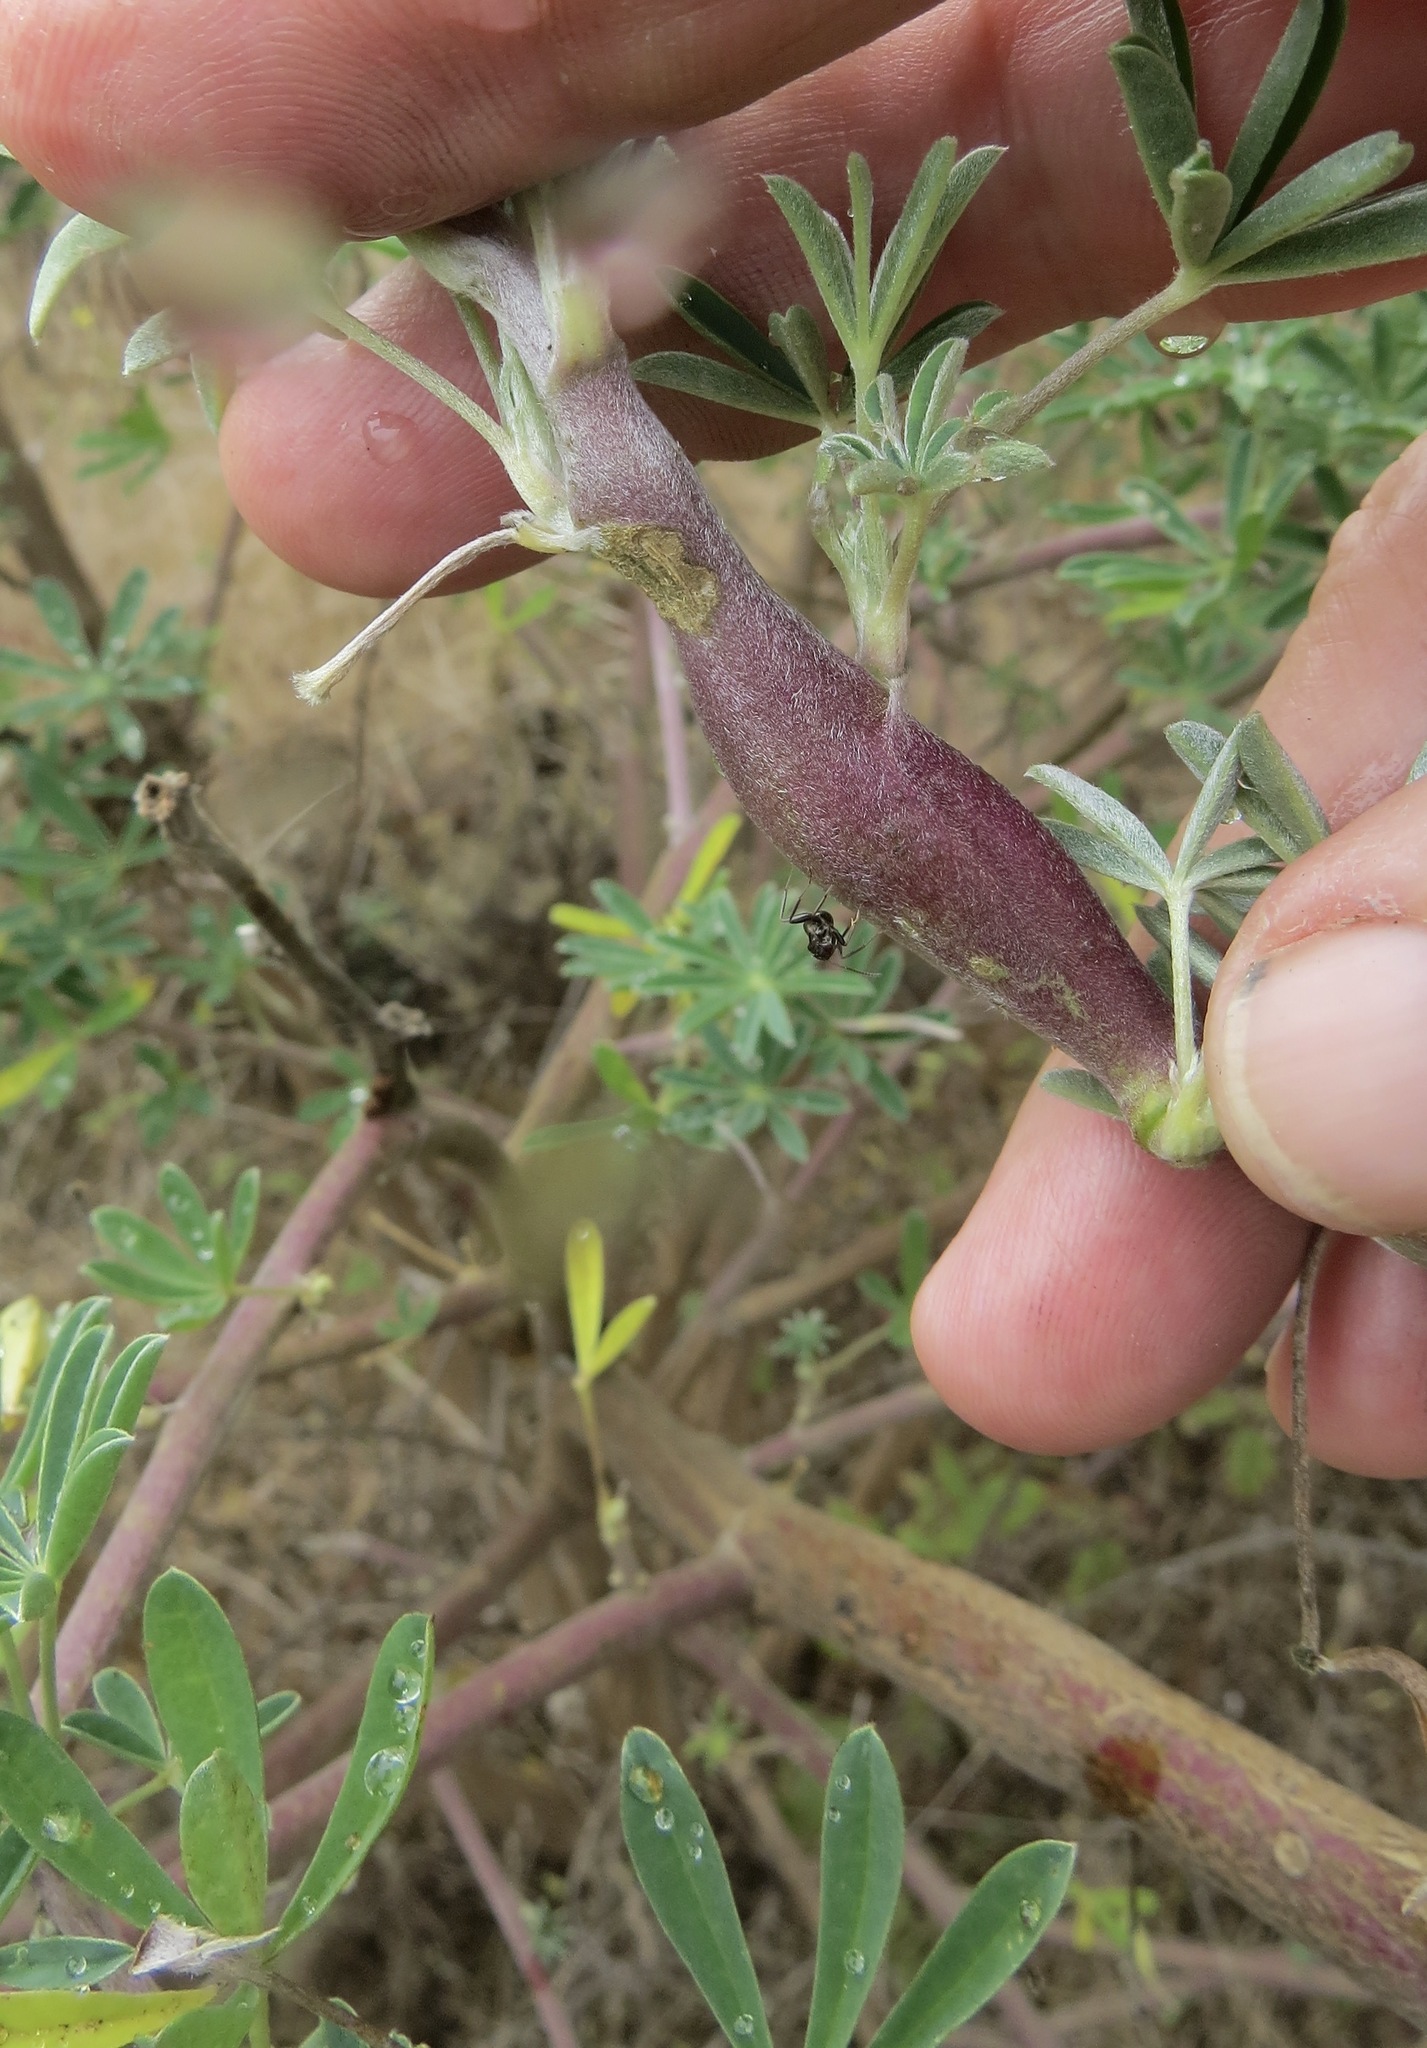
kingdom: Animalia
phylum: Arthropoda
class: Insecta
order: Diptera
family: Cecidomyiidae
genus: Neolasioptera
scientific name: Neolasioptera lupini
